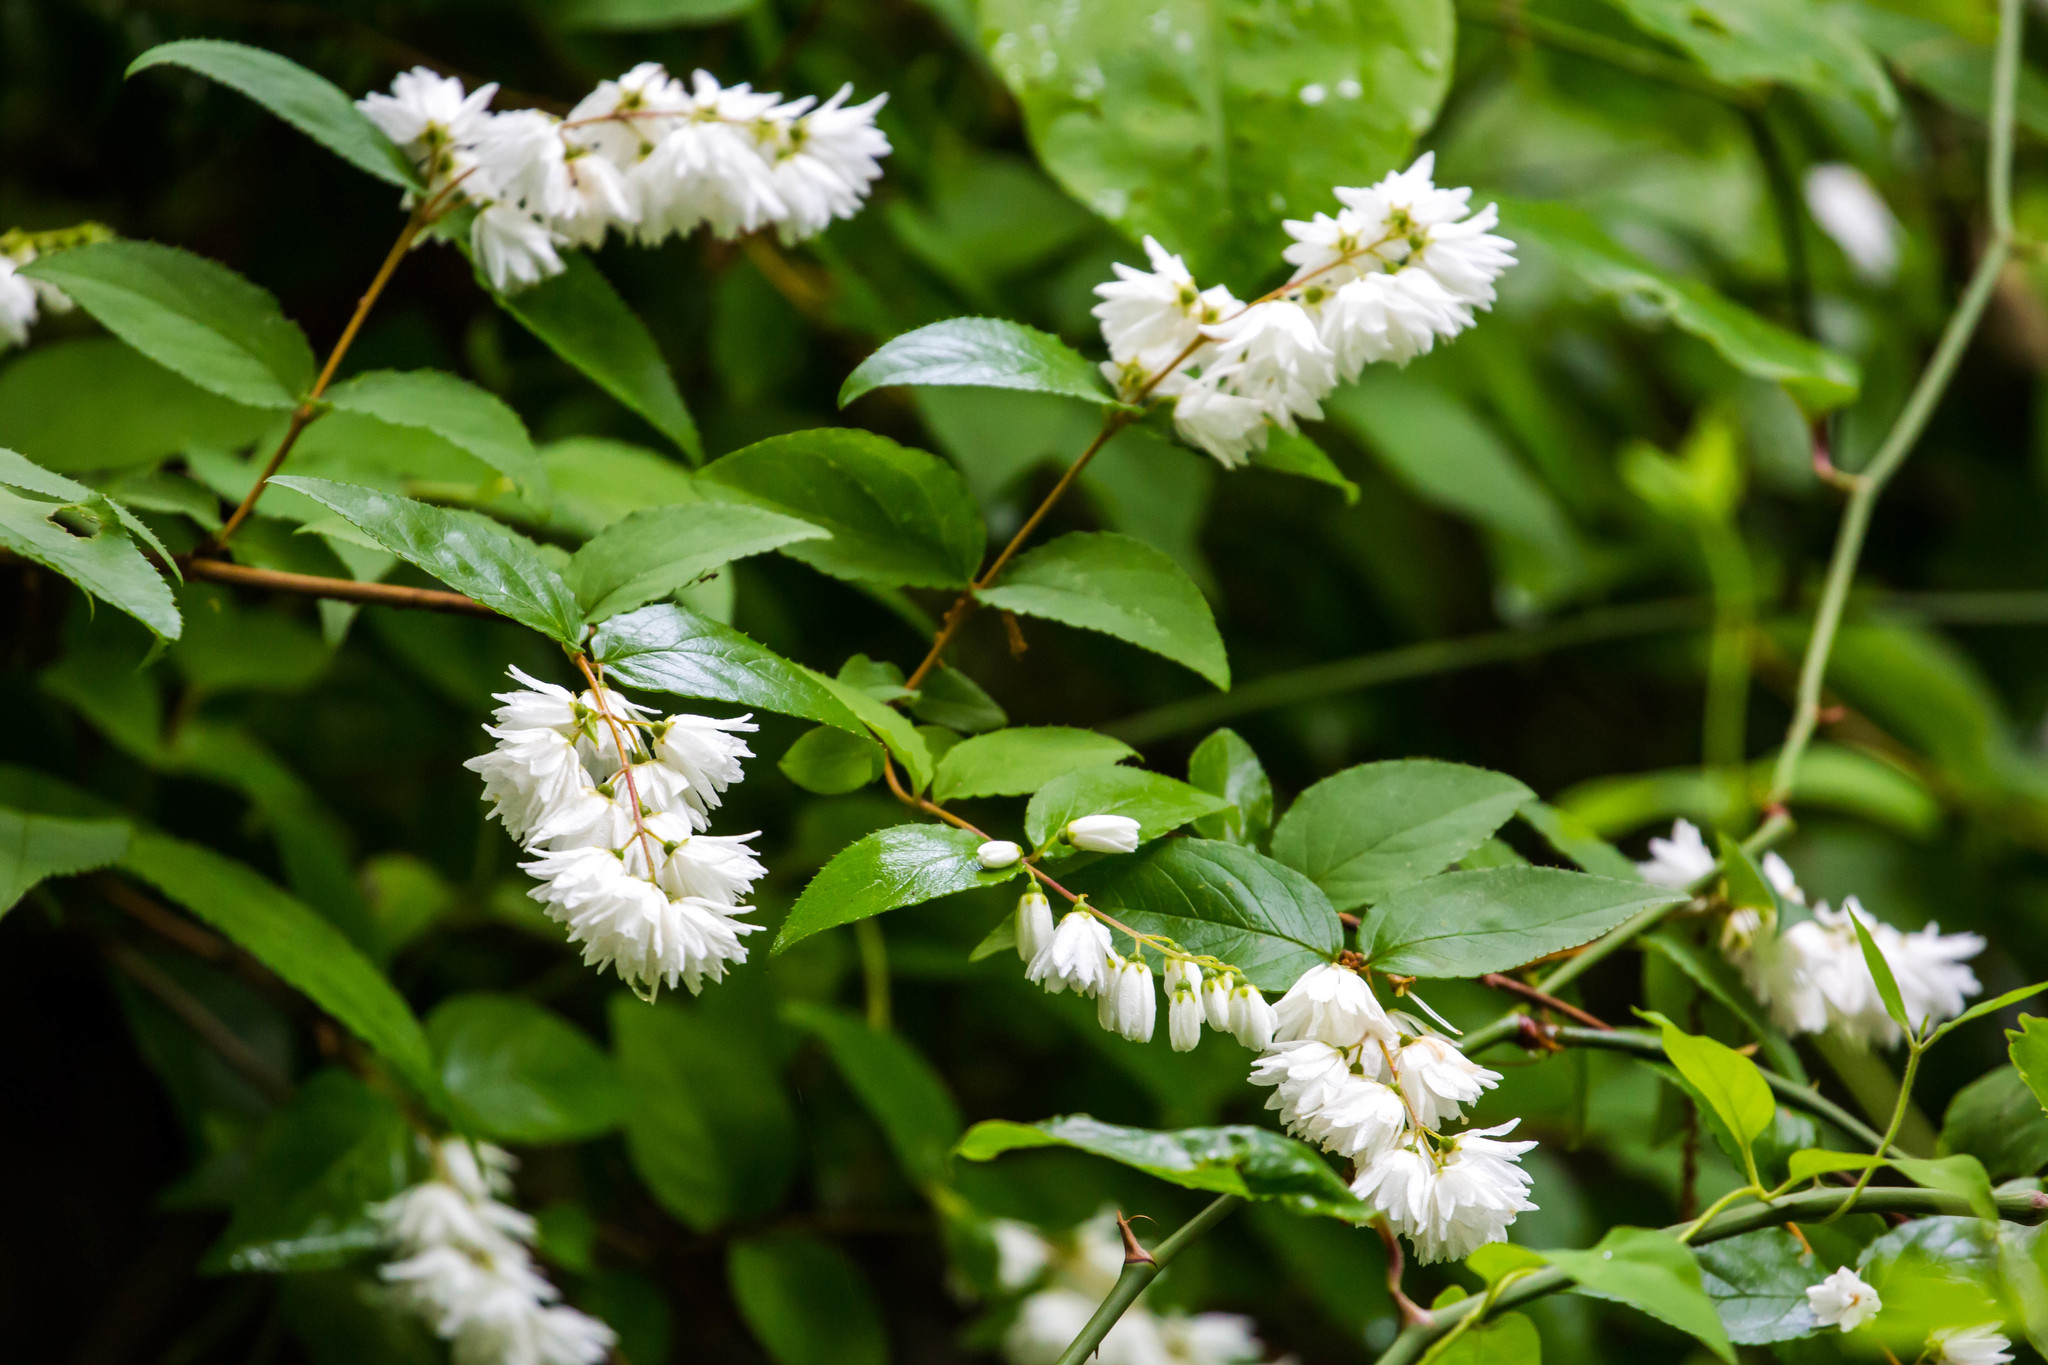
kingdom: Plantae
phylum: Tracheophyta
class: Magnoliopsida
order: Cornales
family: Hydrangeaceae
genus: Deutzia
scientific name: Deutzia crenata
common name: Deutzia
